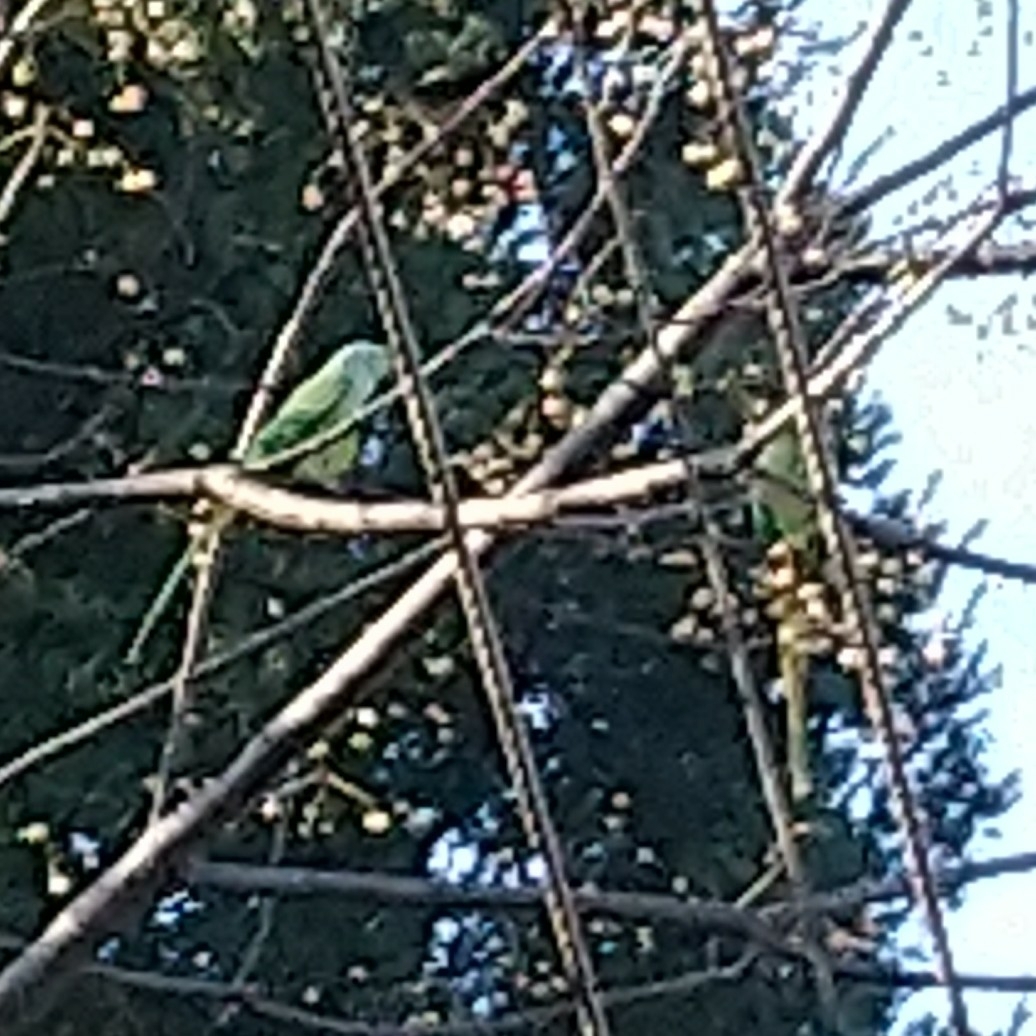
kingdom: Animalia
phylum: Chordata
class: Aves
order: Psittaciformes
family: Psittacidae
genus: Psittacula
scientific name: Psittacula krameri
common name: Rose-ringed parakeet
